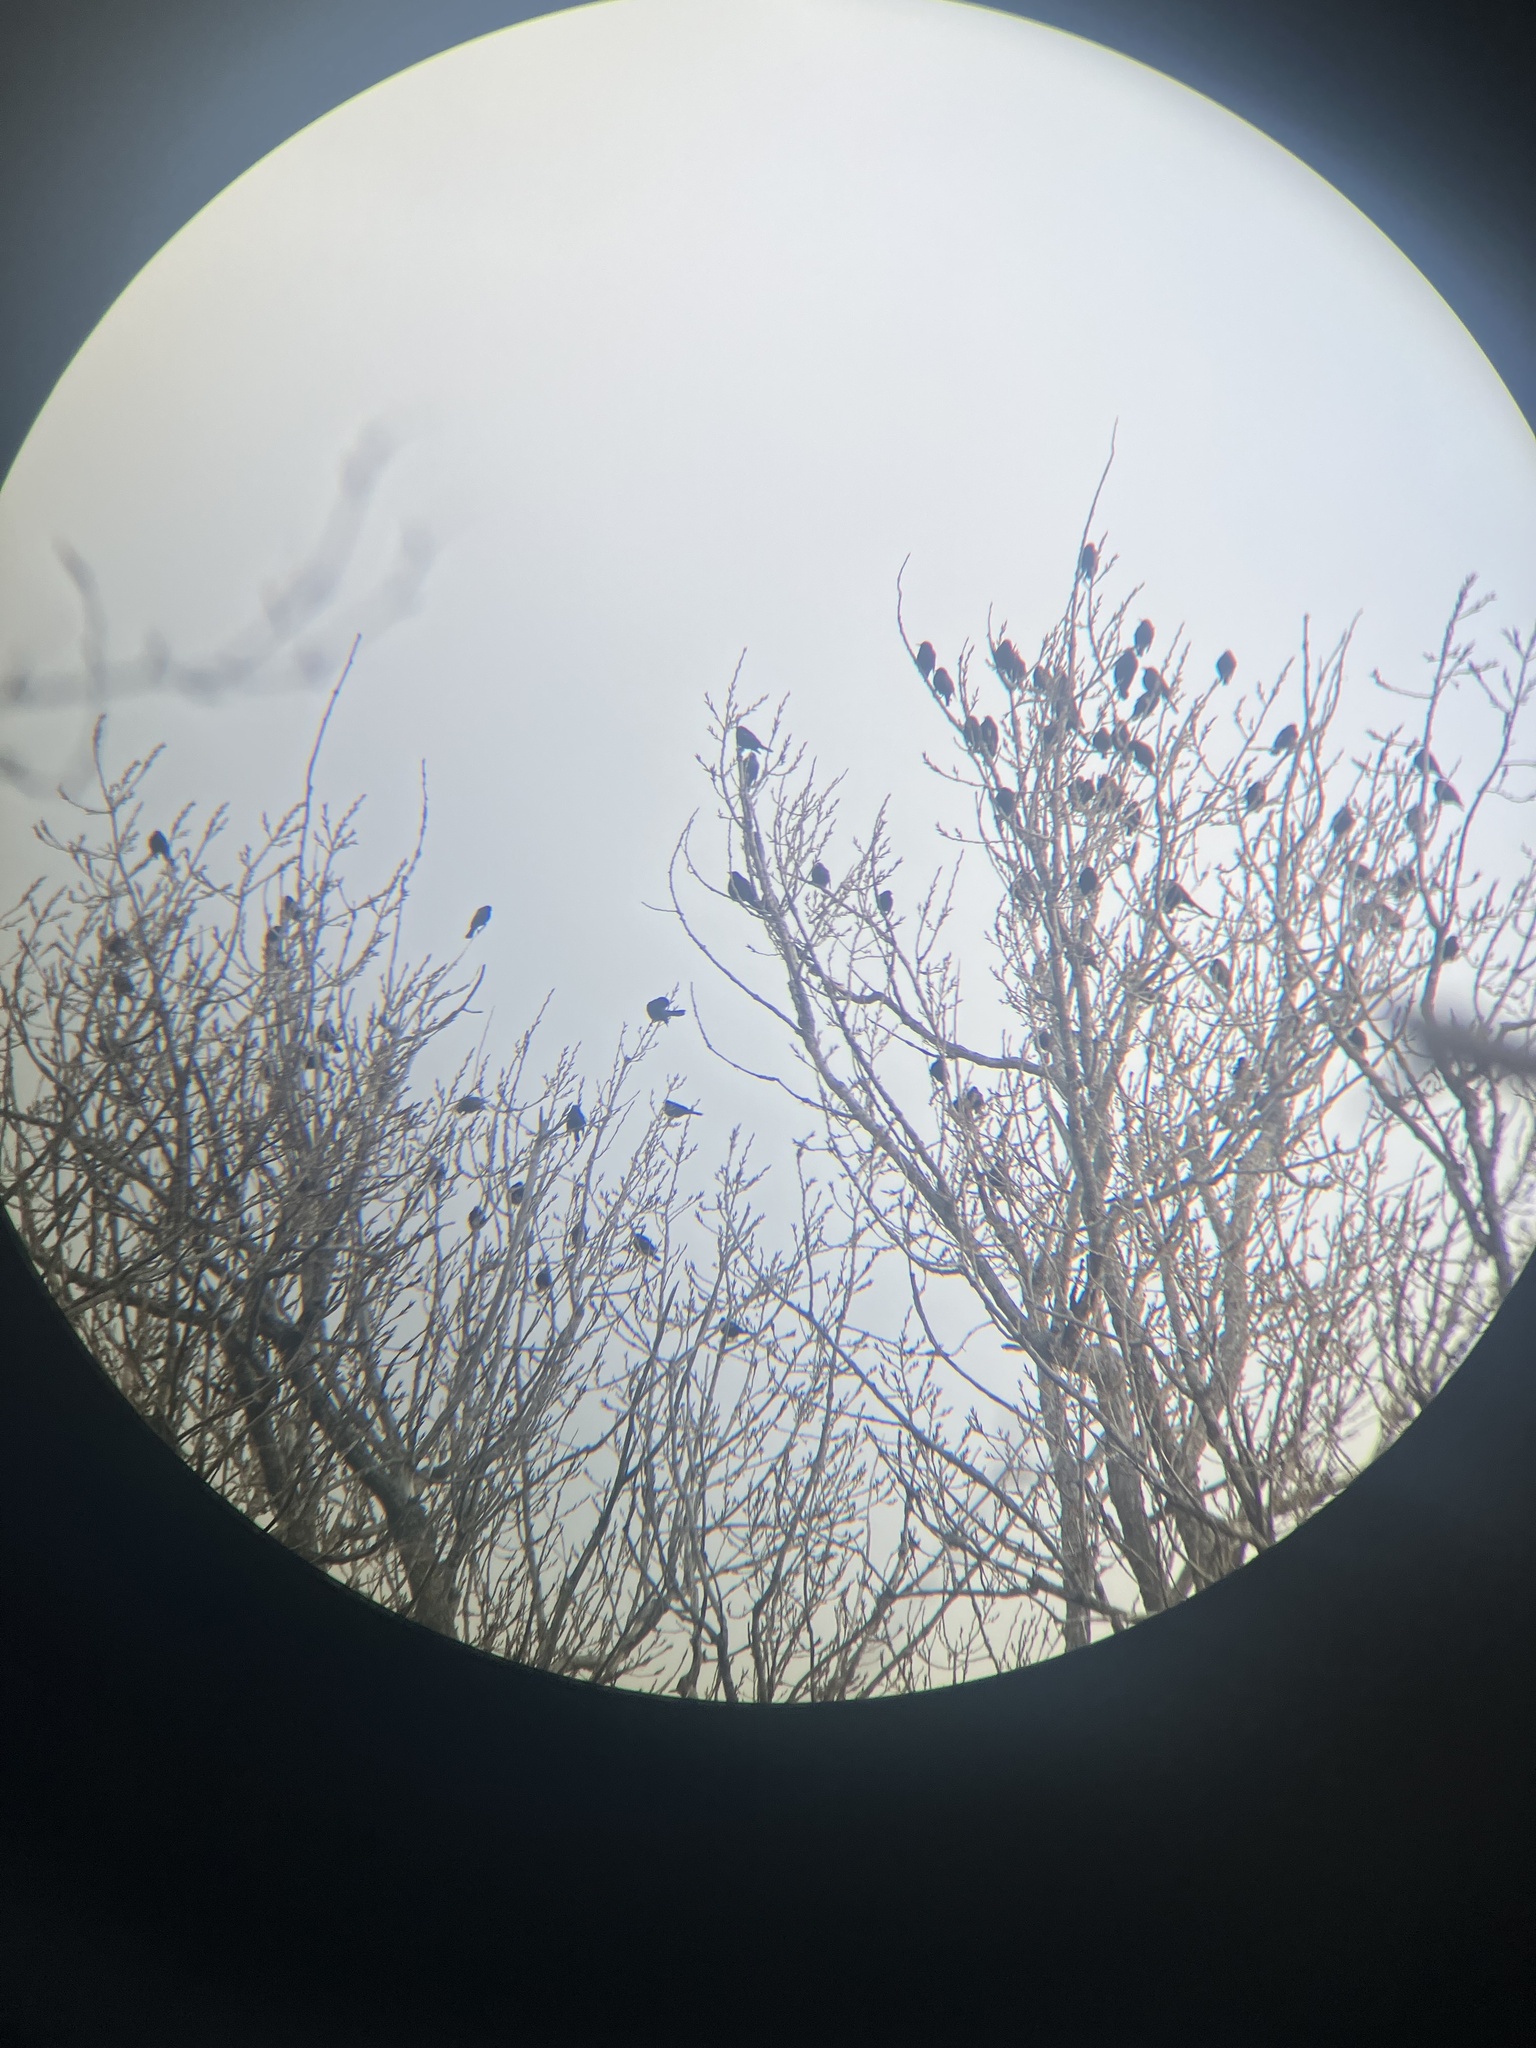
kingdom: Animalia
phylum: Chordata
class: Aves
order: Passeriformes
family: Icteridae
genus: Agelaius
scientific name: Agelaius phoeniceus
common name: Red-winged blackbird
